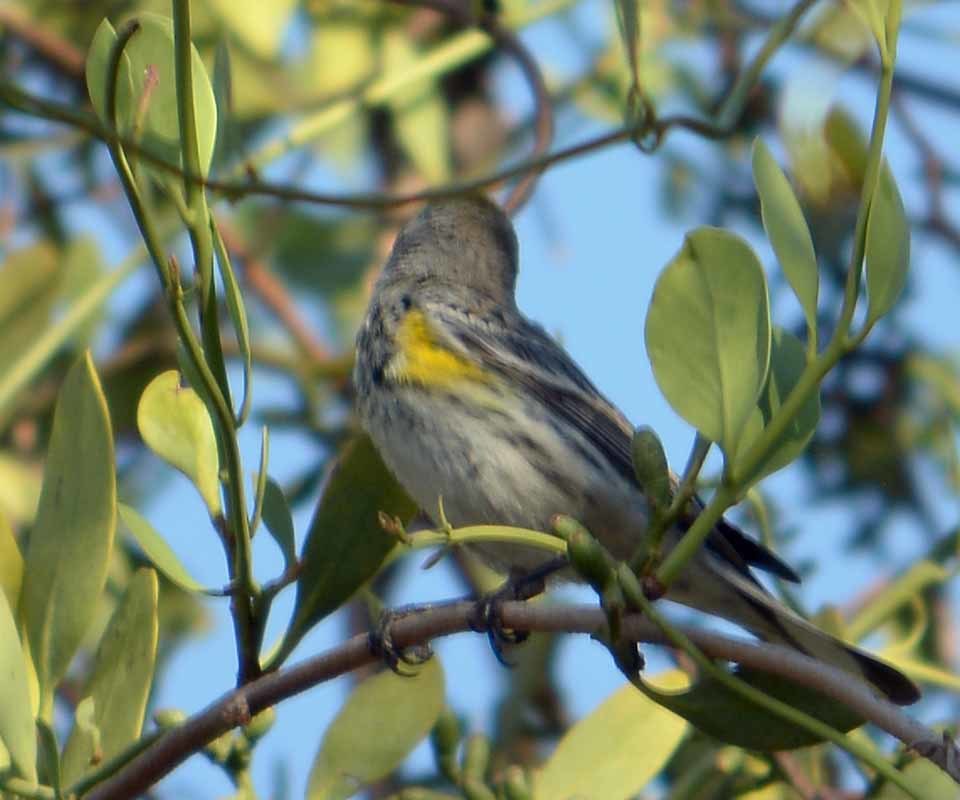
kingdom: Animalia
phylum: Chordata
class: Aves
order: Passeriformes
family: Parulidae
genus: Setophaga
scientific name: Setophaga coronata
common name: Myrtle warbler
